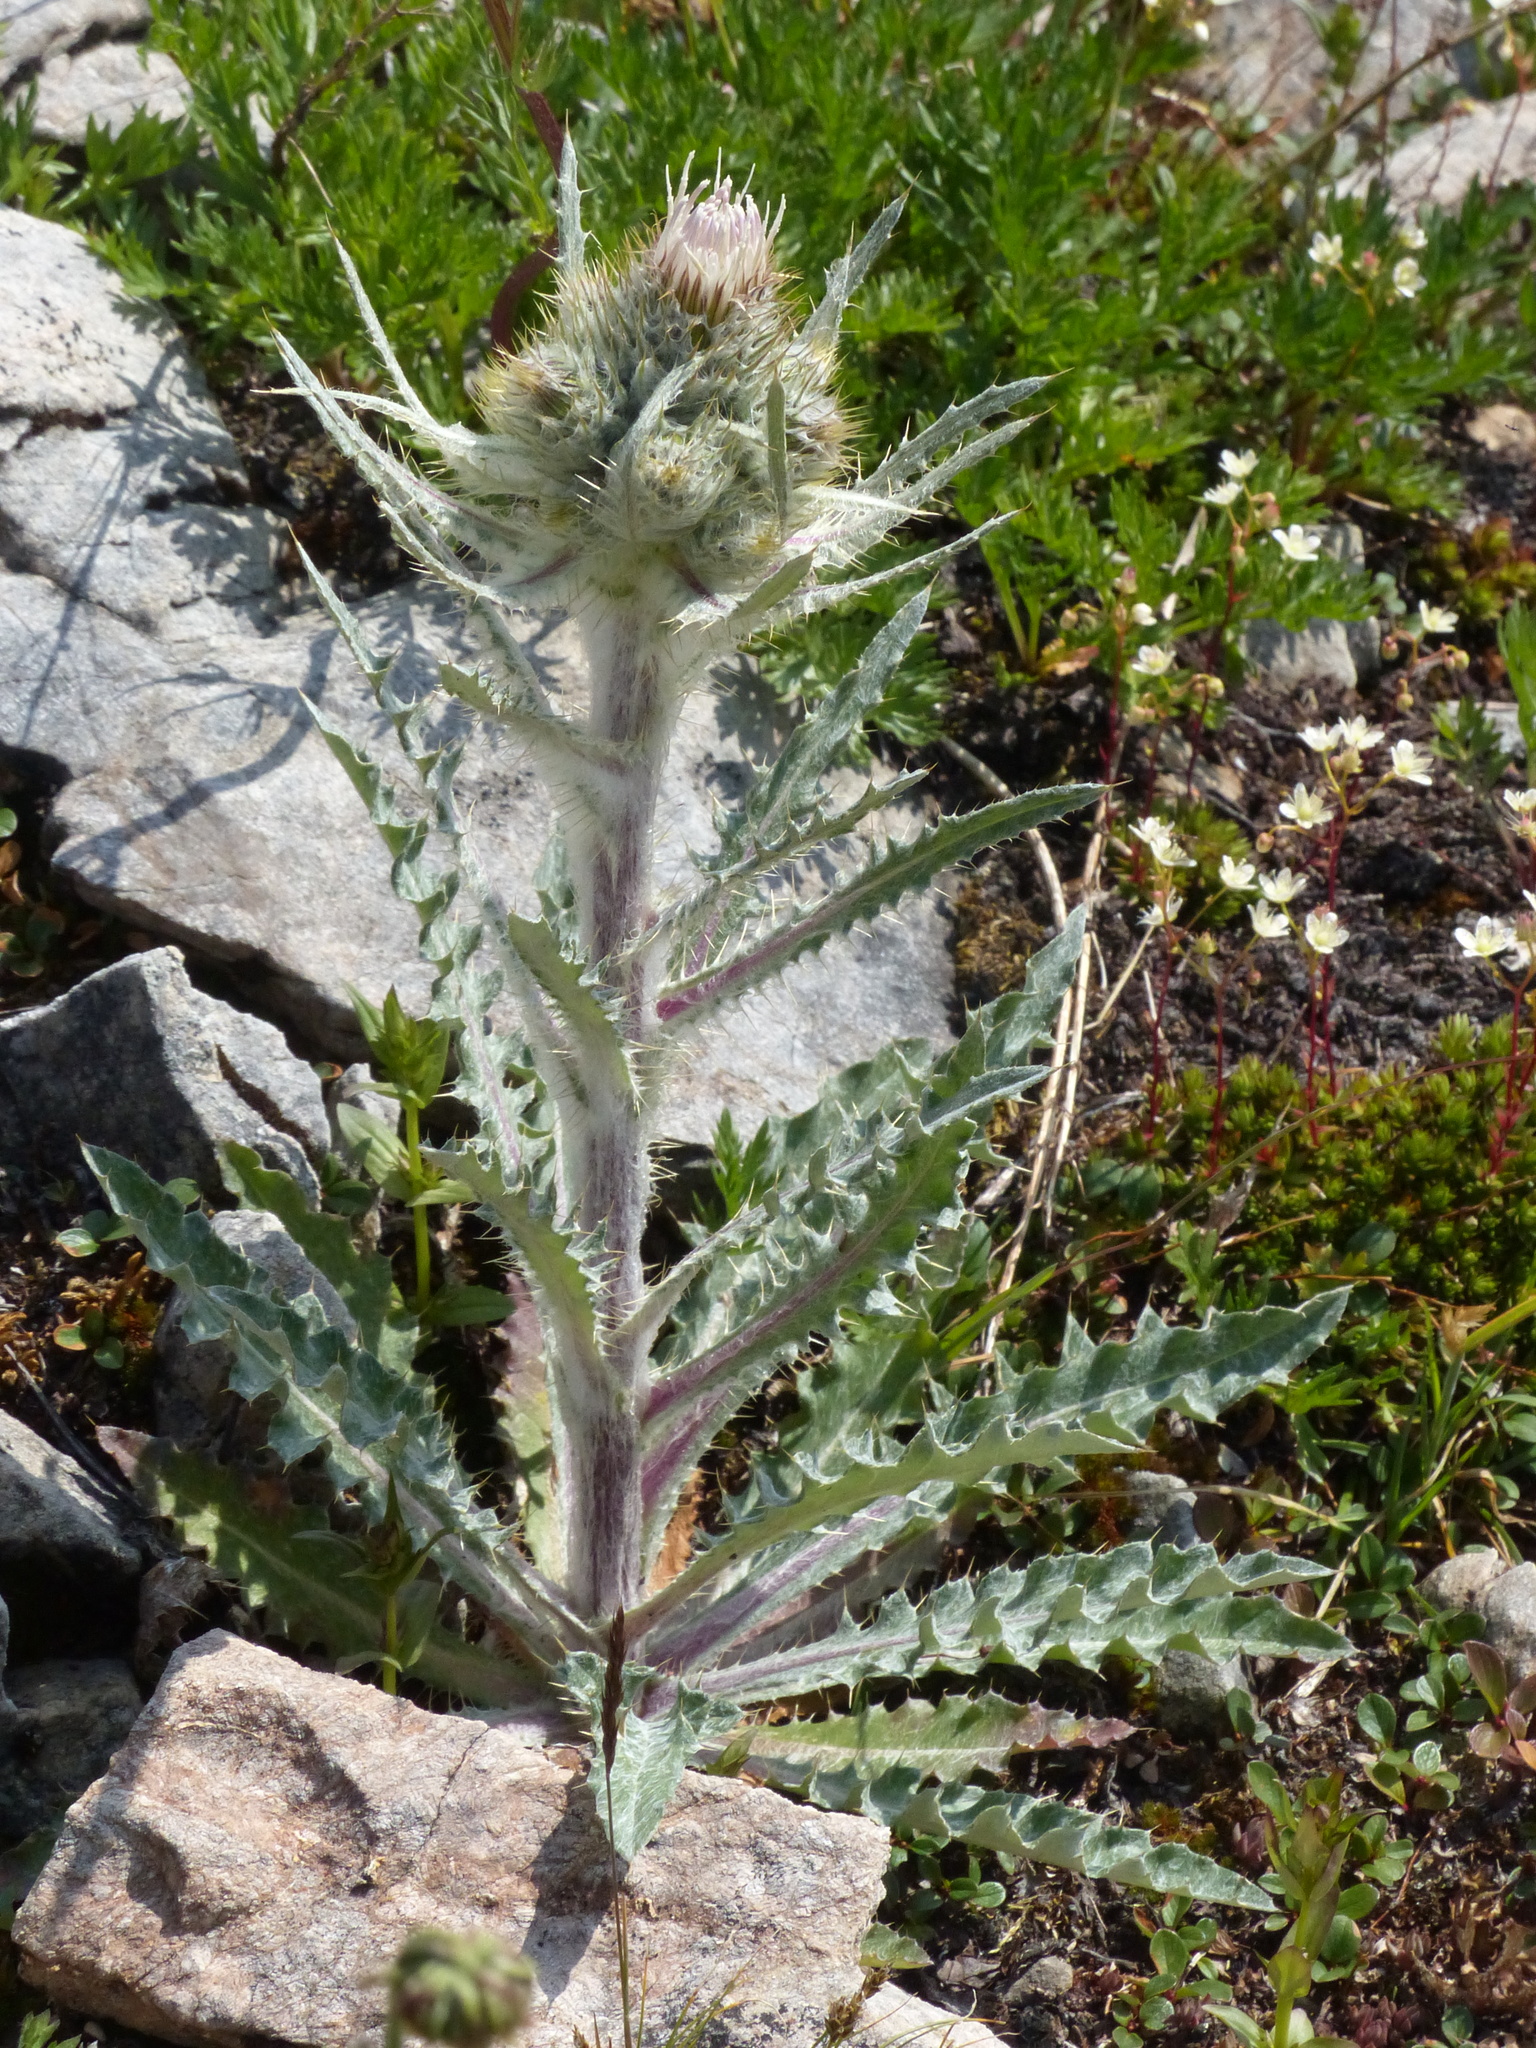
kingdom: Plantae
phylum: Tracheophyta
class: Magnoliopsida
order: Asterales
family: Asteraceae
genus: Cirsium
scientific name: Cirsium hookerianum
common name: Hooker's thistle
